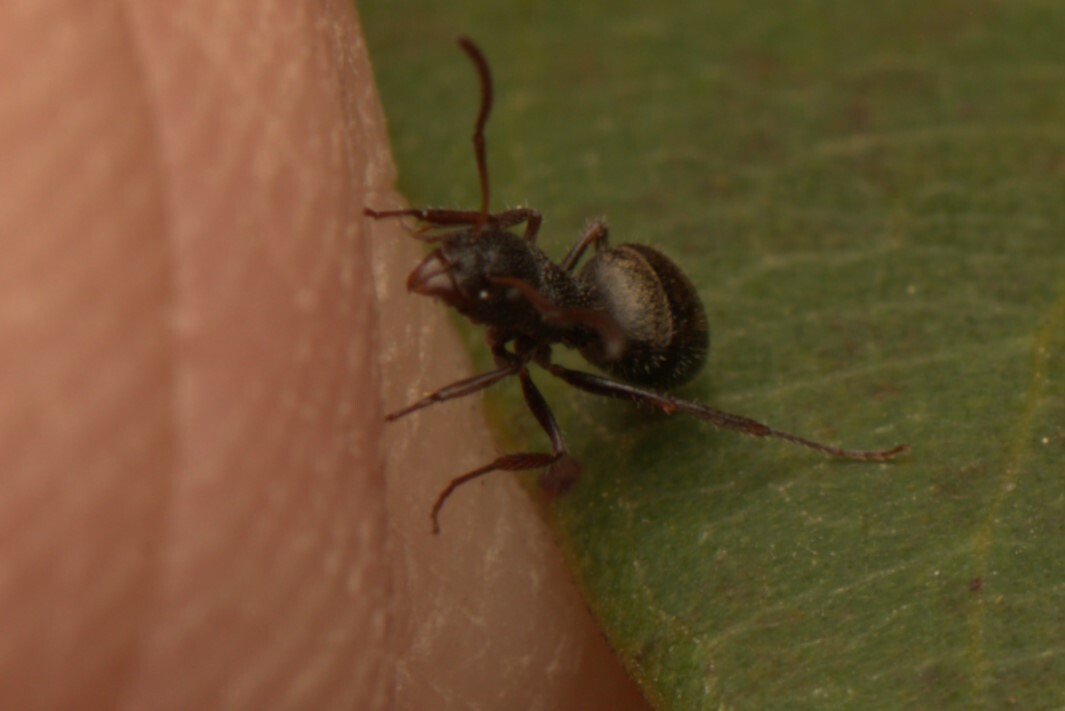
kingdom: Animalia
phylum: Arthropoda
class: Insecta
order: Hymenoptera
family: Formicidae
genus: Dolichoderus
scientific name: Dolichoderus scrobiculatus
